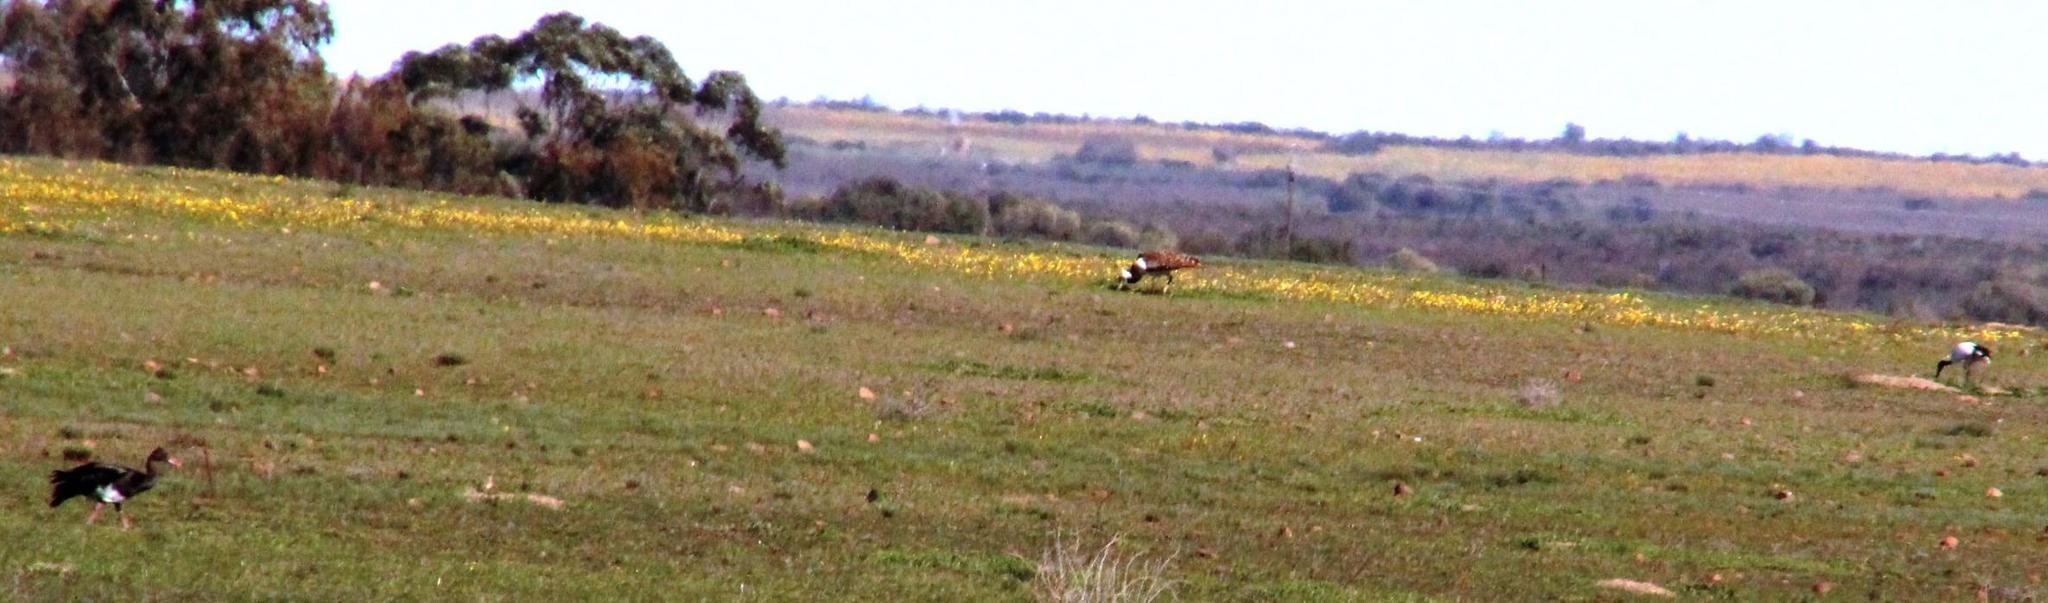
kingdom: Animalia
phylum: Chordata
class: Aves
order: Otidiformes
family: Otididae
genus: Neotis
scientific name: Neotis ludwigii
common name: Ludwig's bustard
